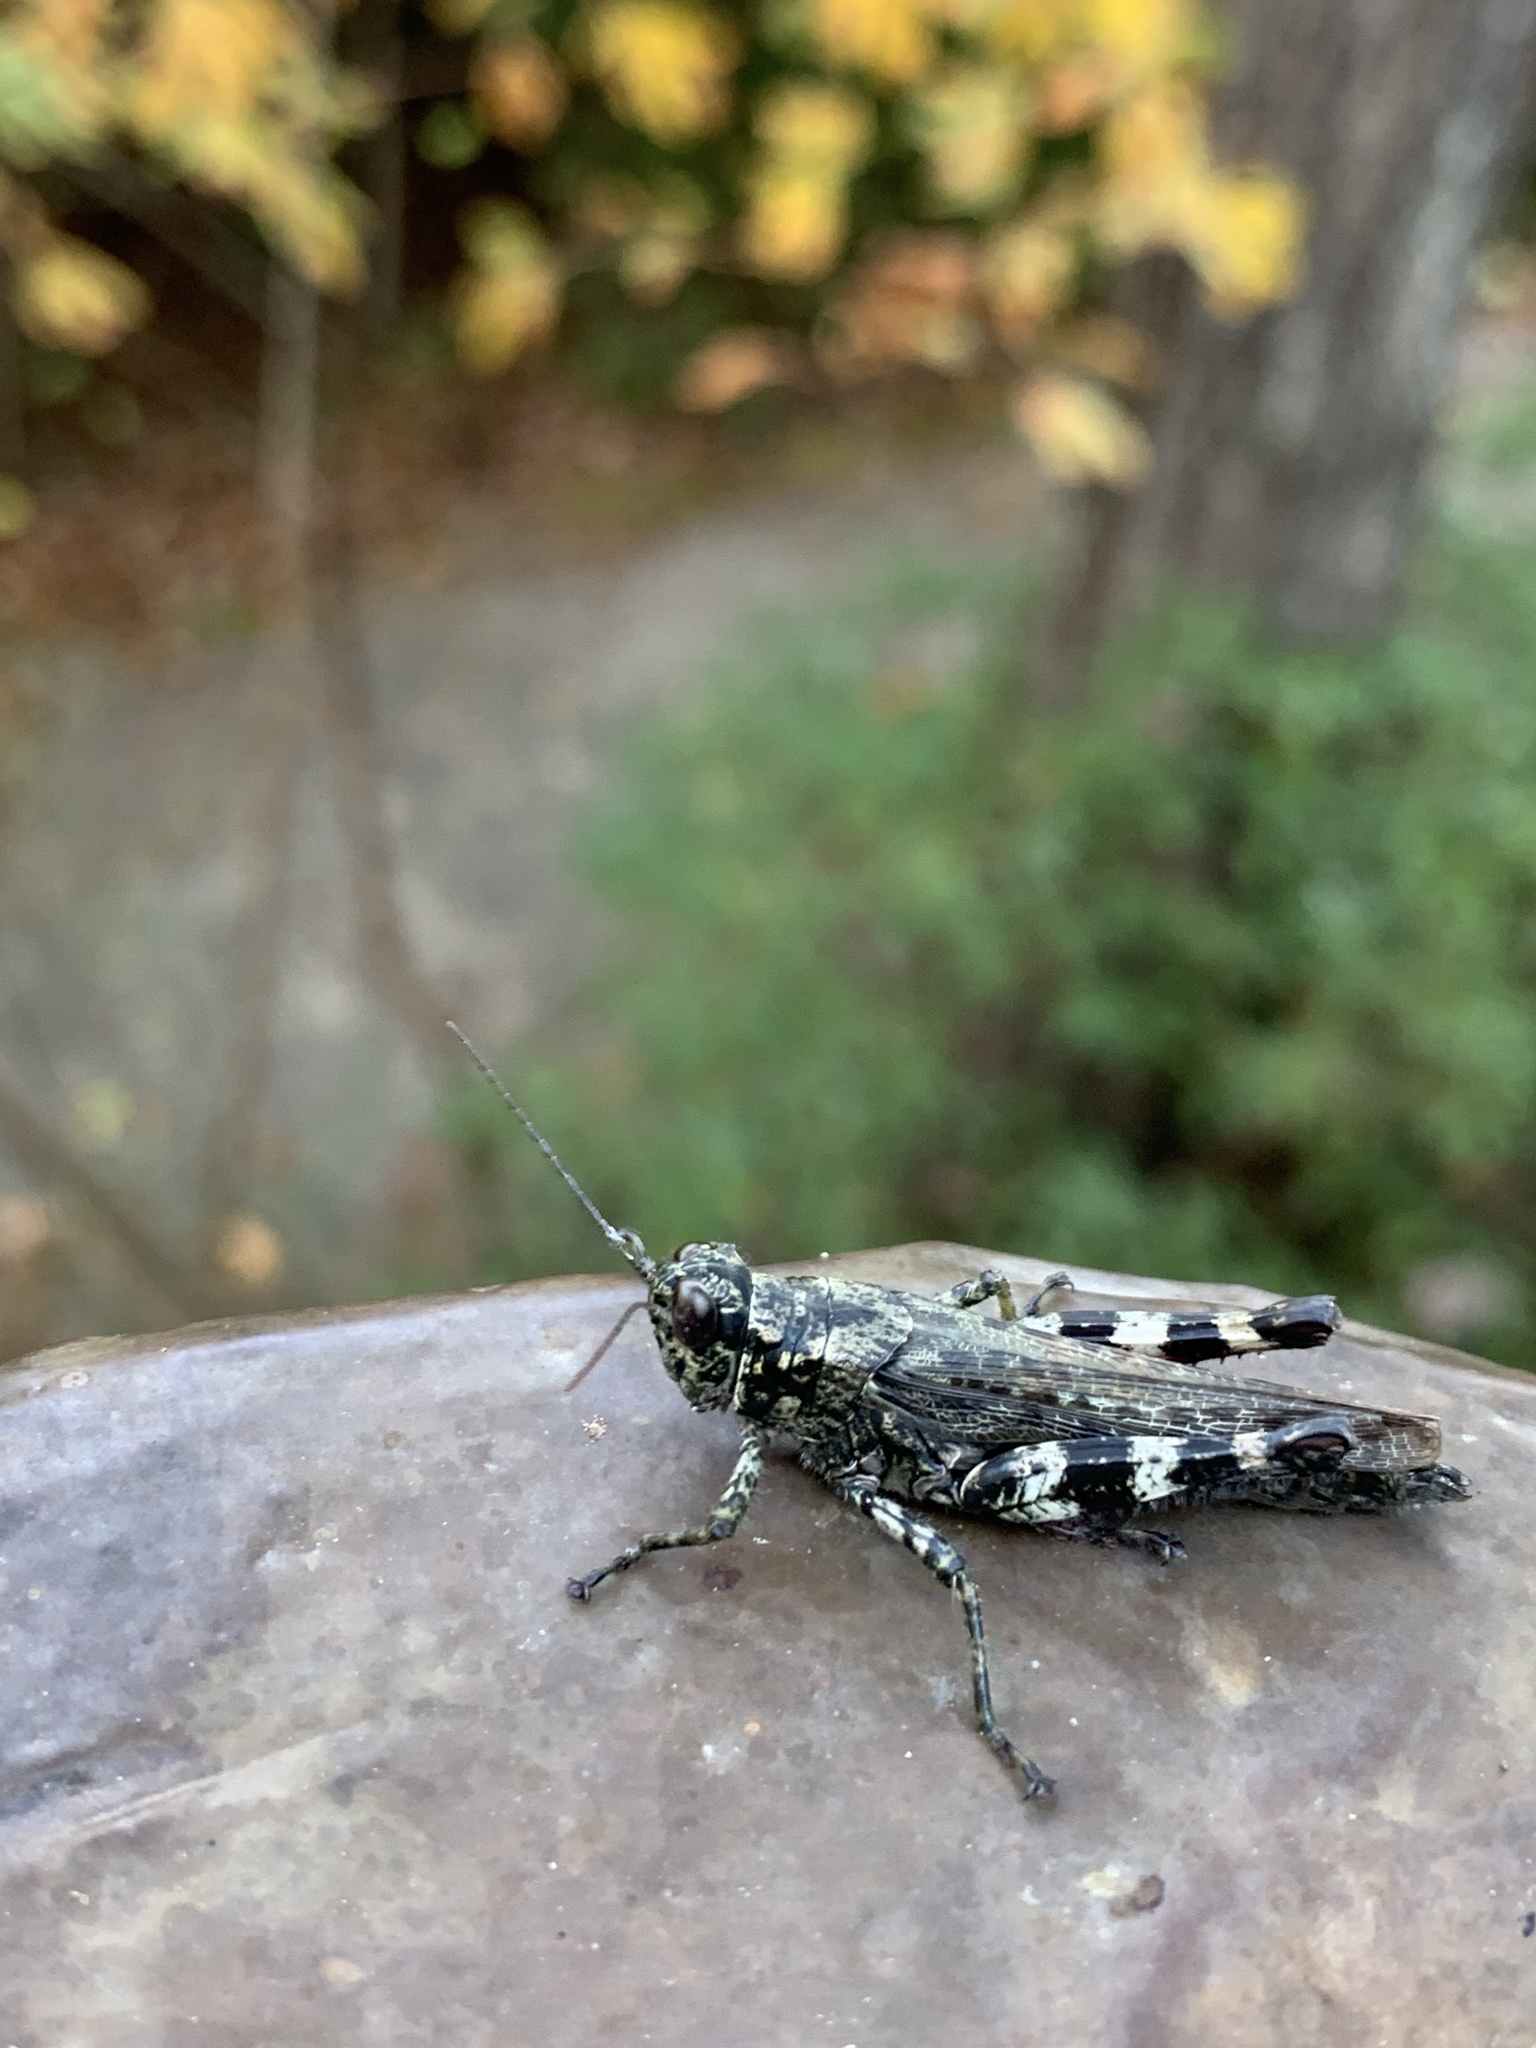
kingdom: Animalia
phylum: Arthropoda
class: Insecta
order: Orthoptera
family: Acrididae
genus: Melanoplus
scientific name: Melanoplus punctulatus
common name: Pine-tree spur-throat grasshopper
